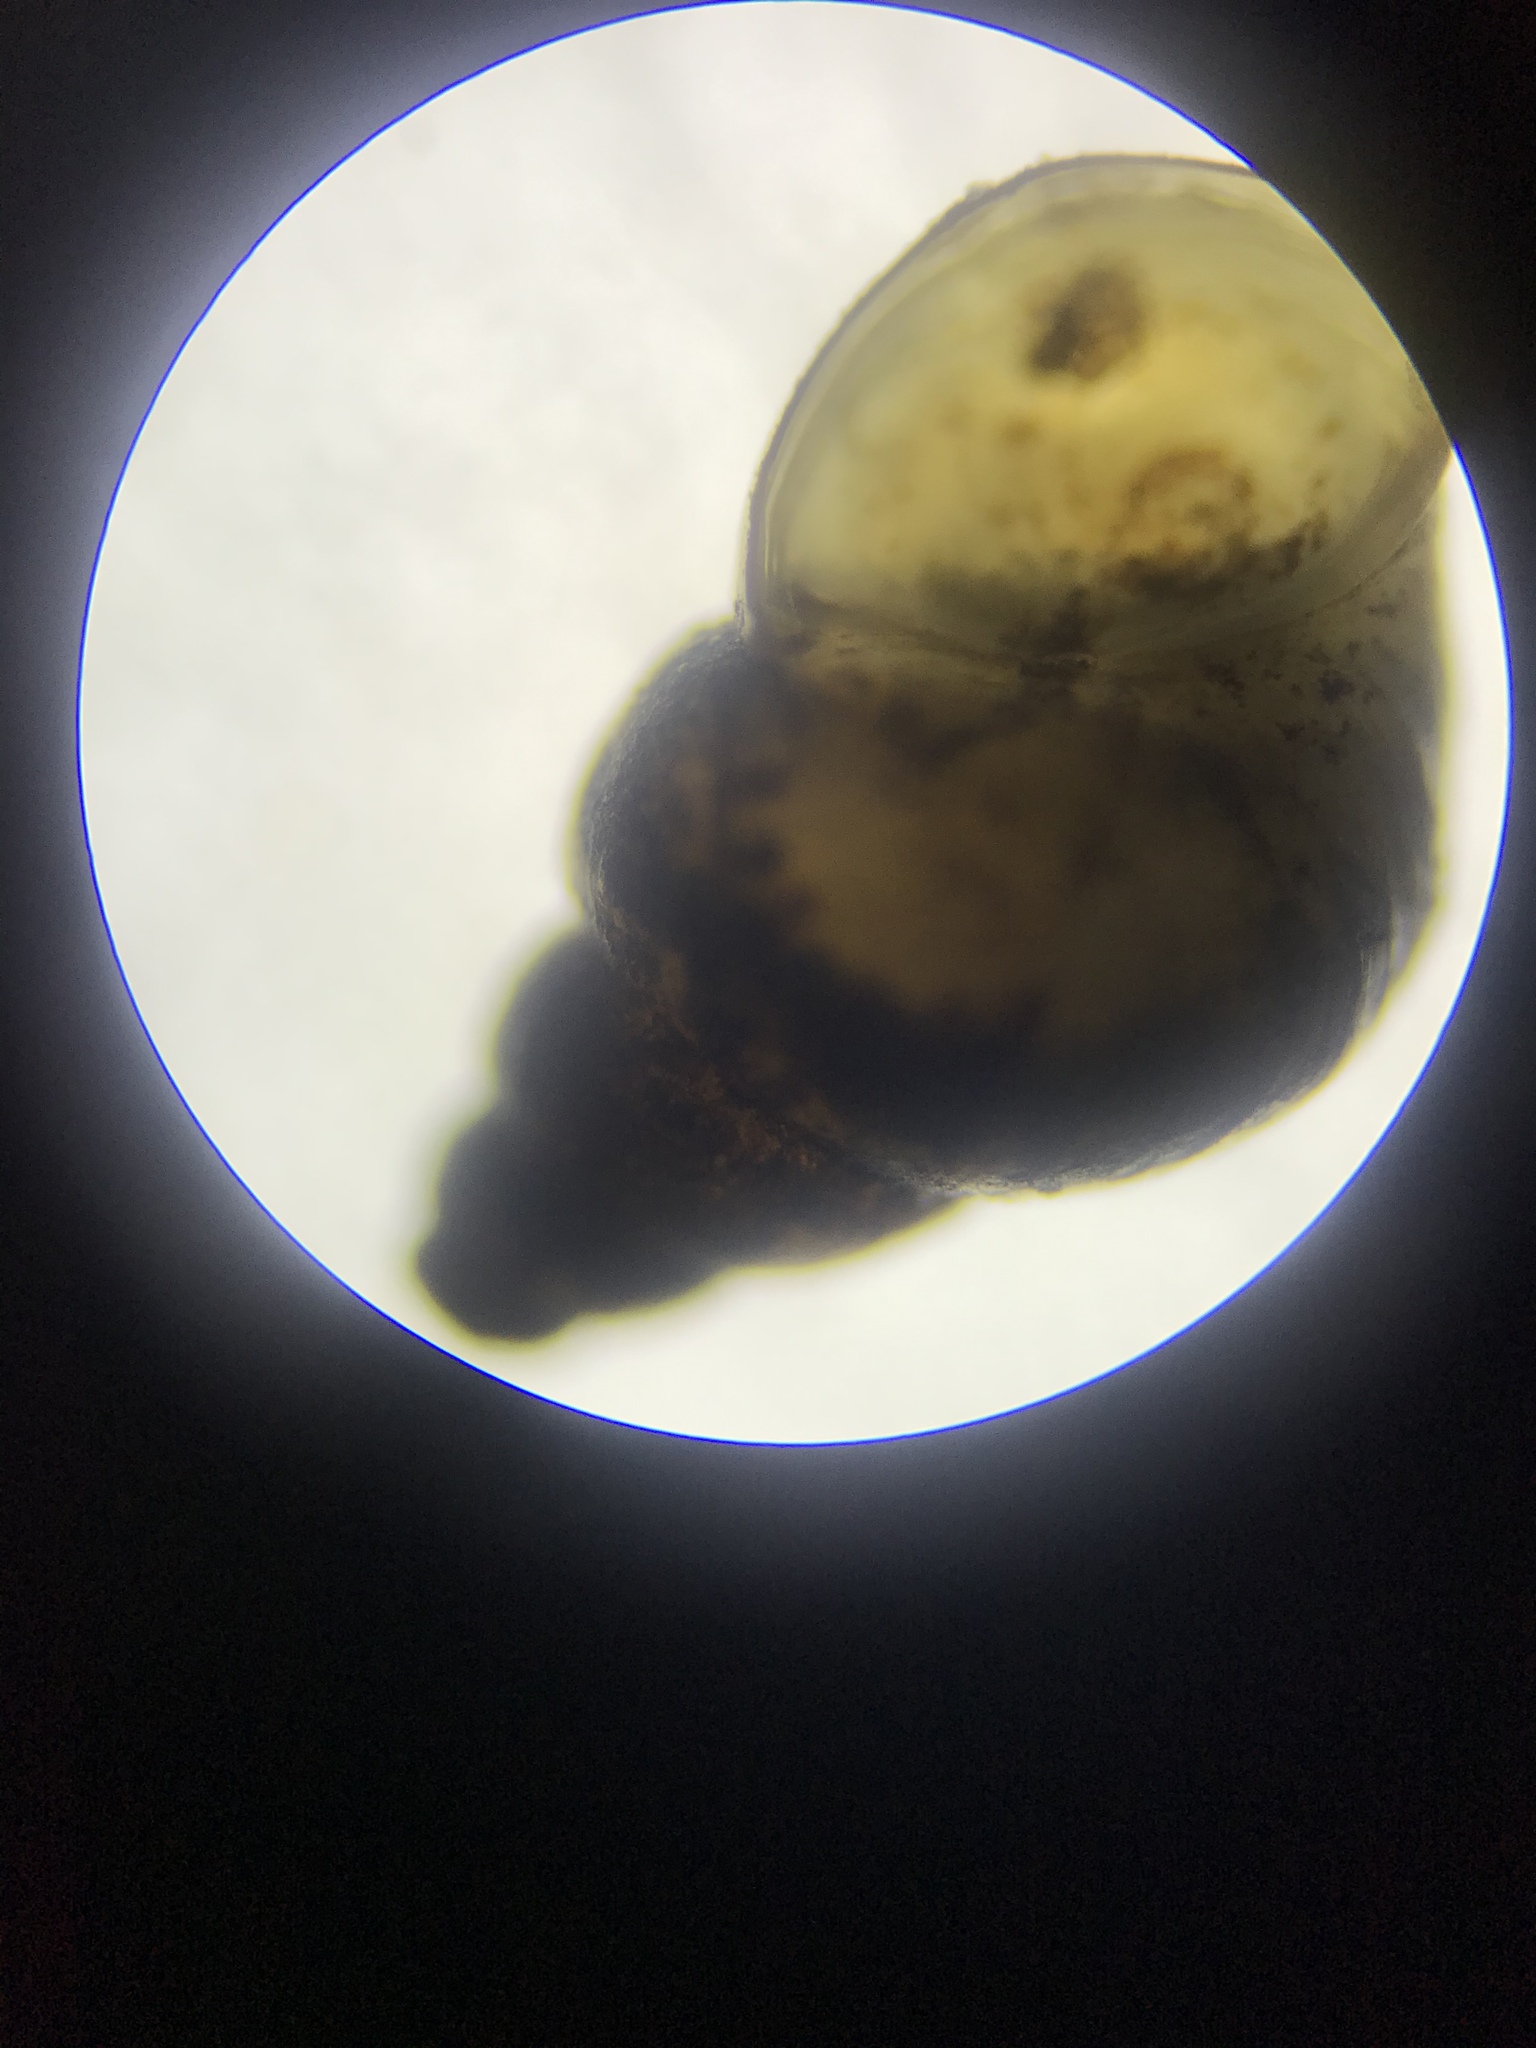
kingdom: Animalia
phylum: Mollusca
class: Gastropoda
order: Littorinimorpha
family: Tateidae
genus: Potamopyrgus
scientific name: Potamopyrgus antipodarum
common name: Jenkins' spire snail
